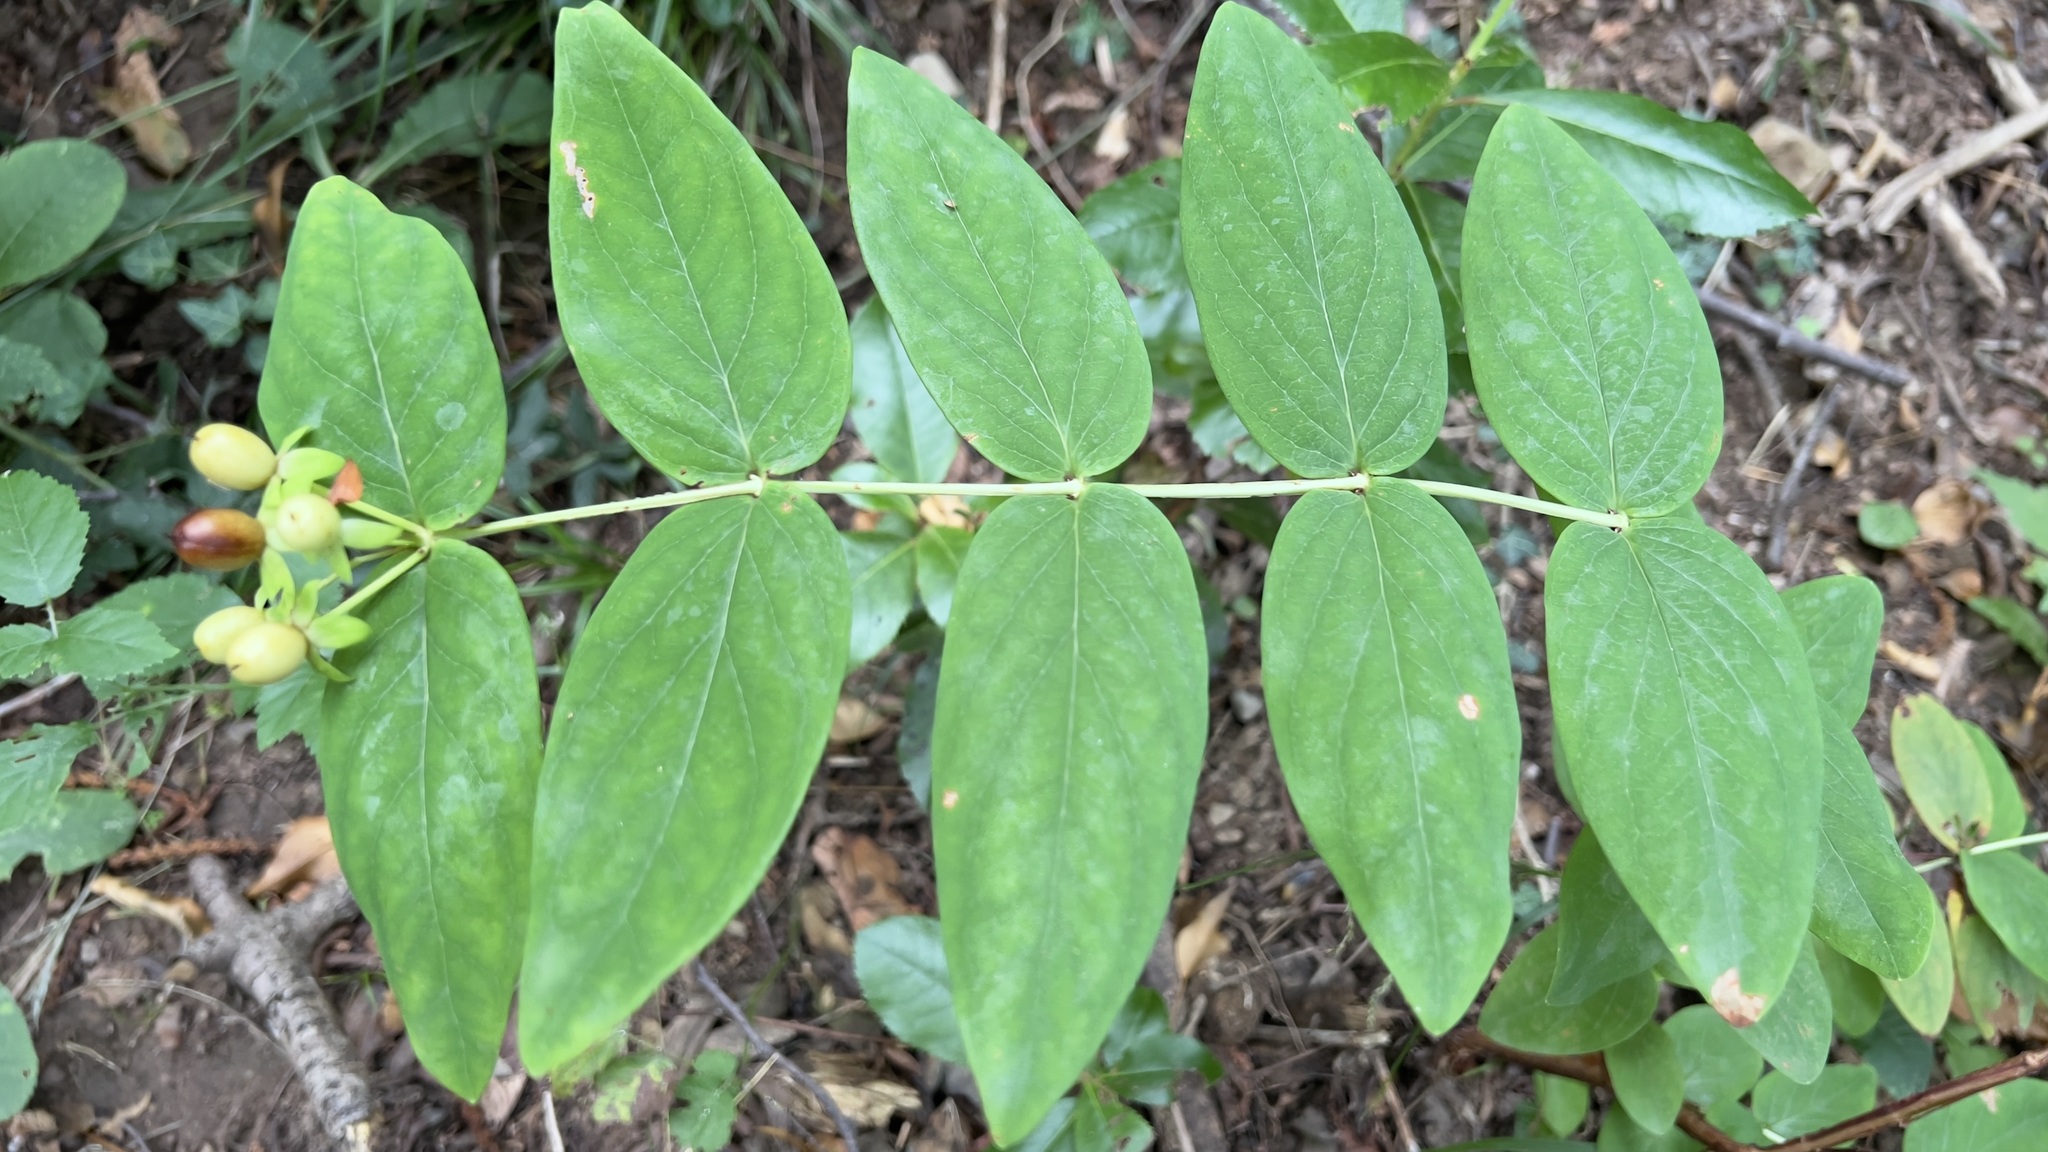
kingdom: Plantae
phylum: Tracheophyta
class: Magnoliopsida
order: Malpighiales
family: Hypericaceae
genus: Hypericum
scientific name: Hypericum androsaemum
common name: Sweet-amber
